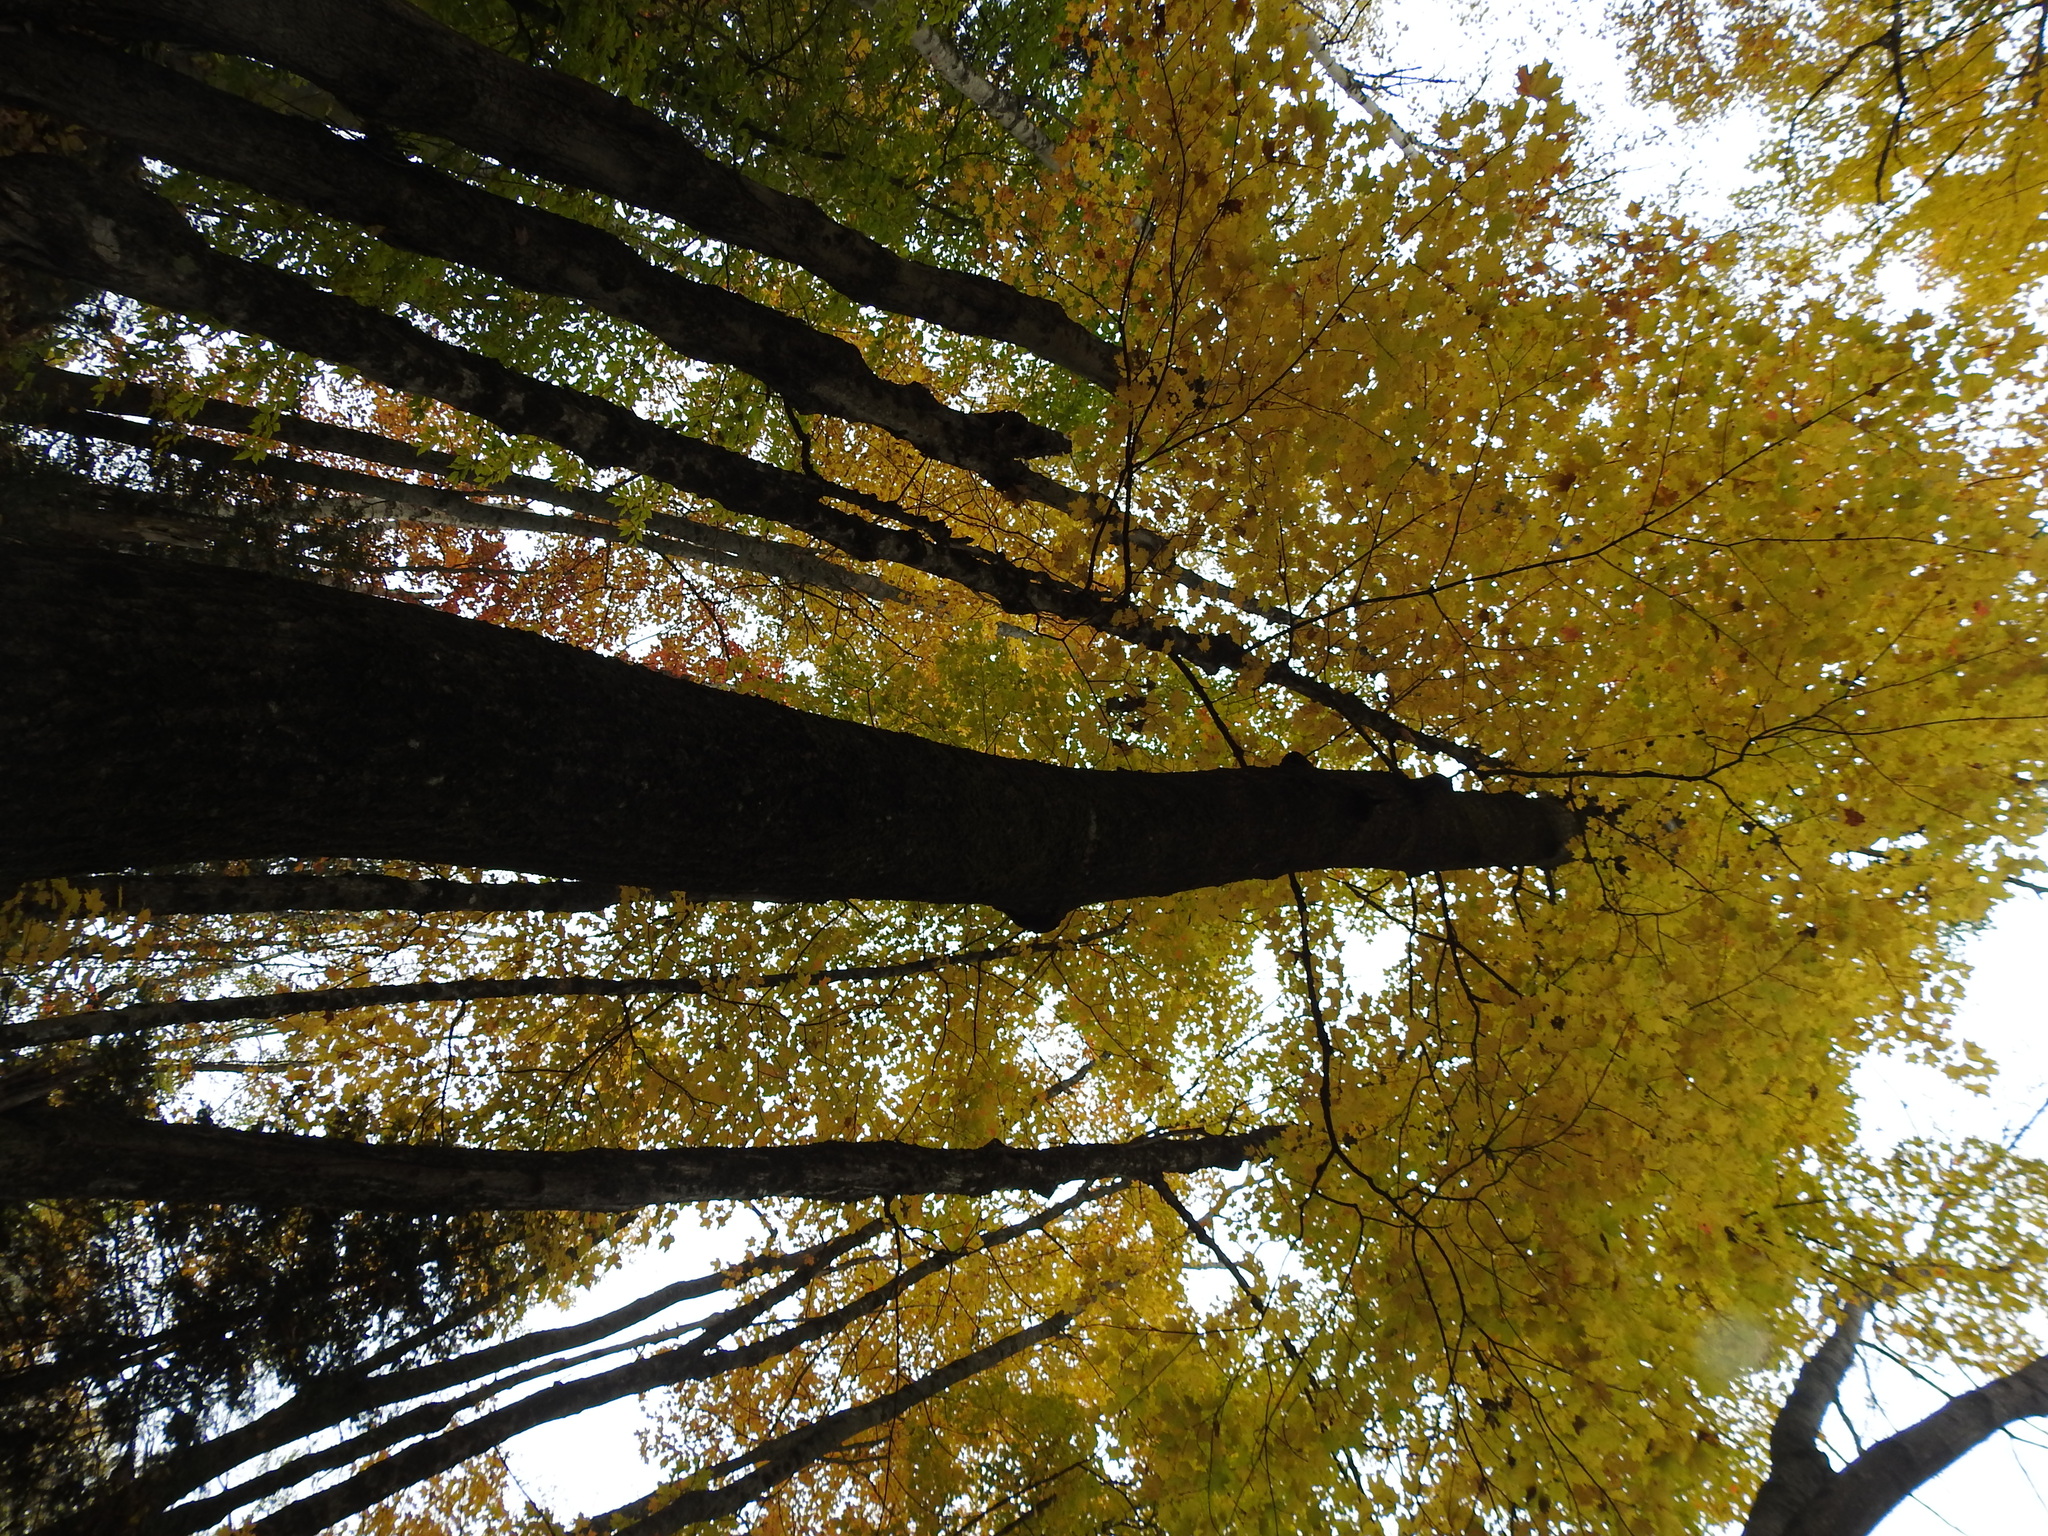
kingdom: Plantae
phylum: Tracheophyta
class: Magnoliopsida
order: Sapindales
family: Sapindaceae
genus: Acer
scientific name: Acer saccharum
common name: Sugar maple
